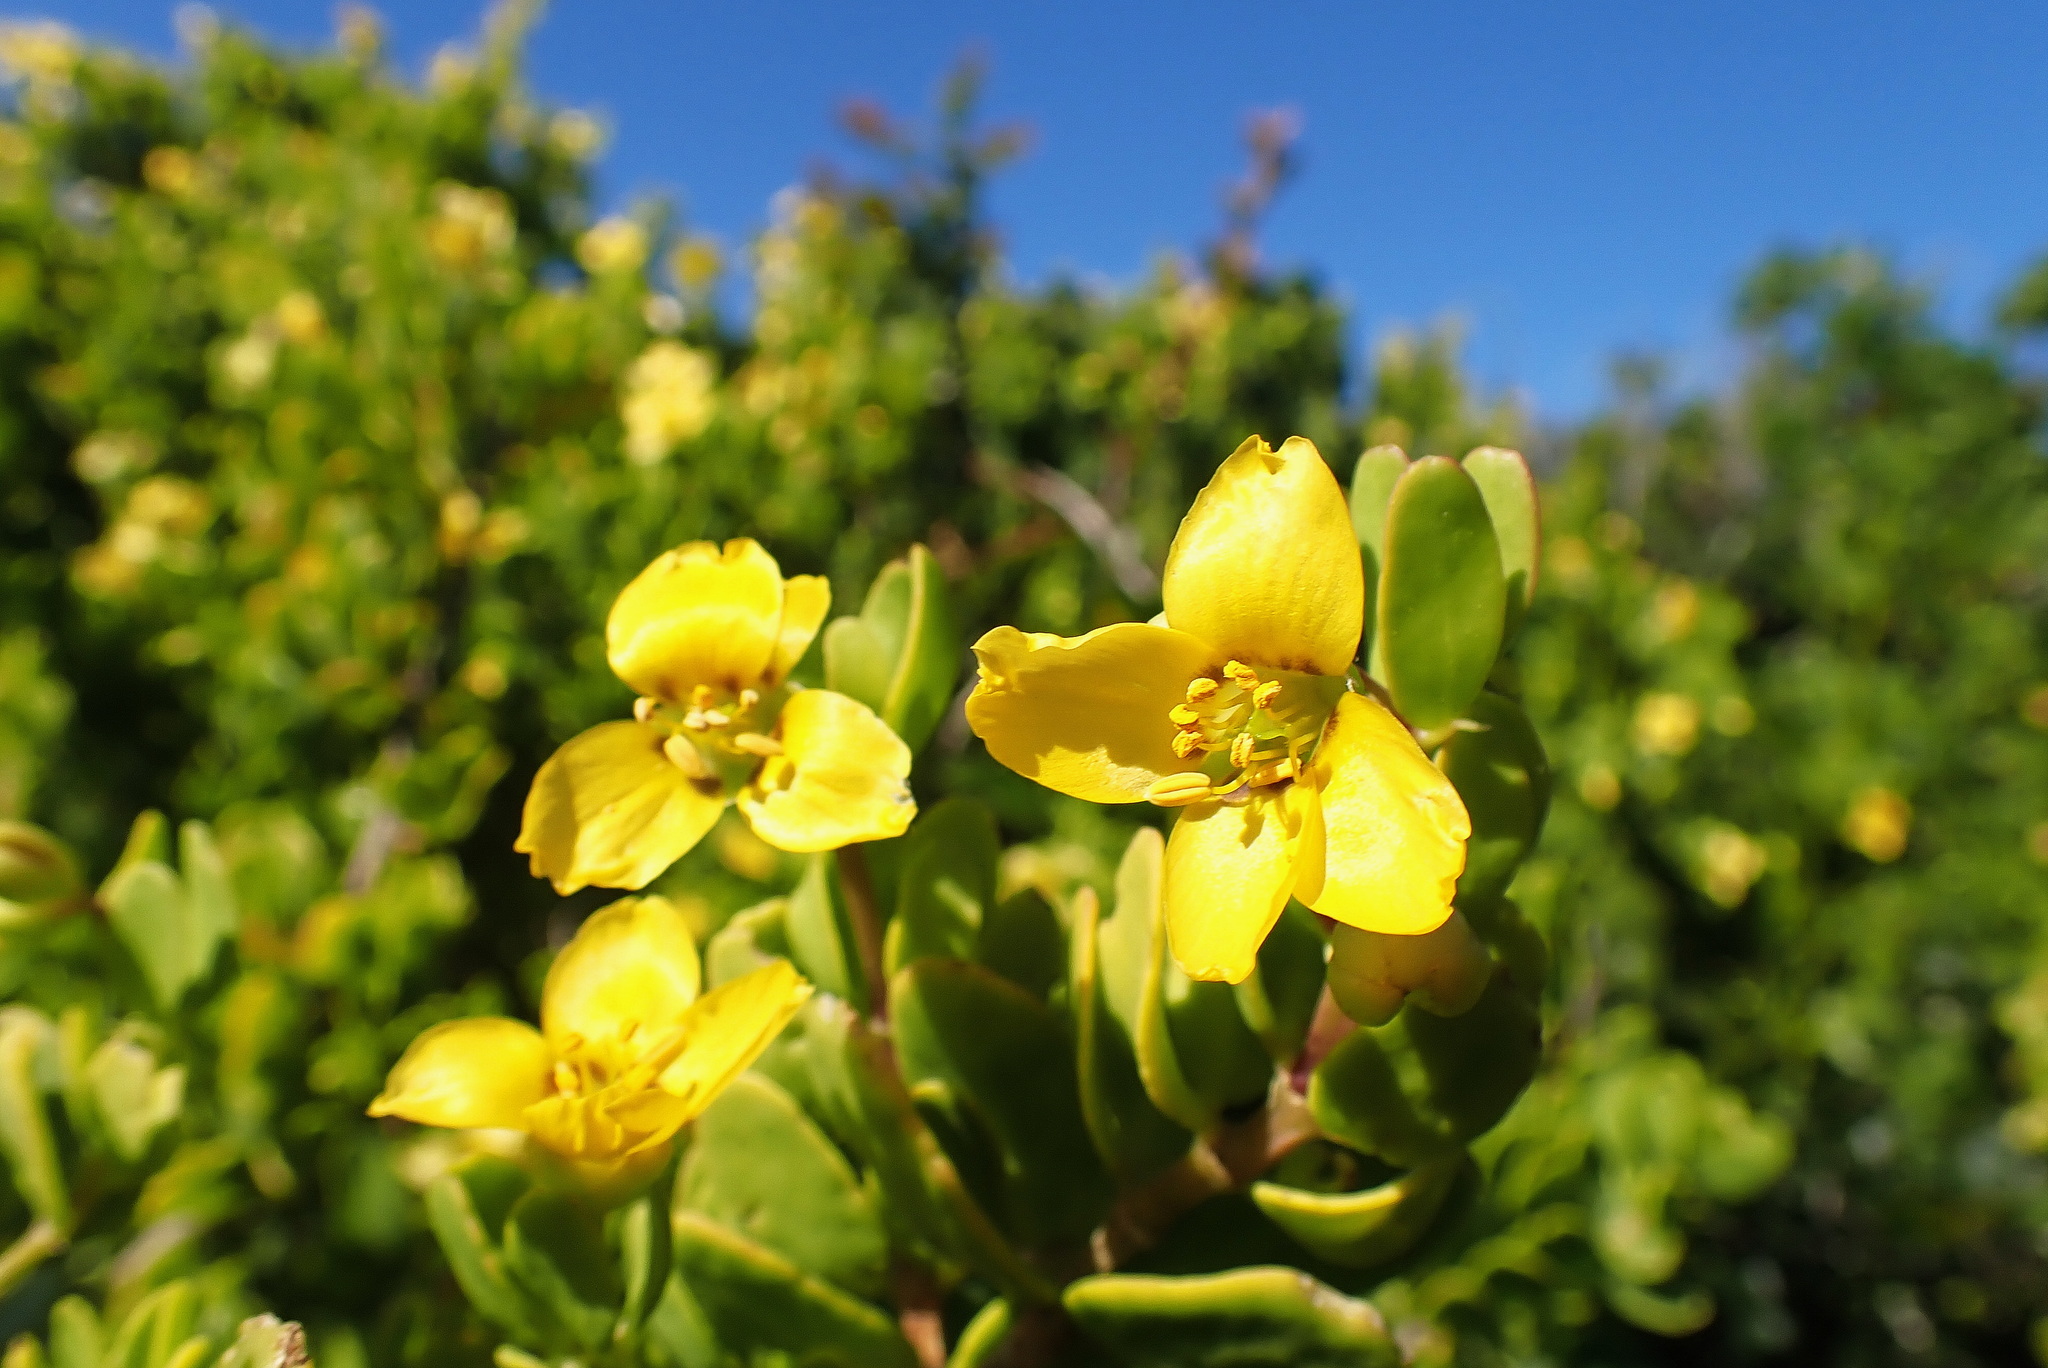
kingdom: Plantae
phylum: Tracheophyta
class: Magnoliopsida
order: Zygophyllales
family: Zygophyllaceae
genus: Roepera
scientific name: Roepera morgsana
